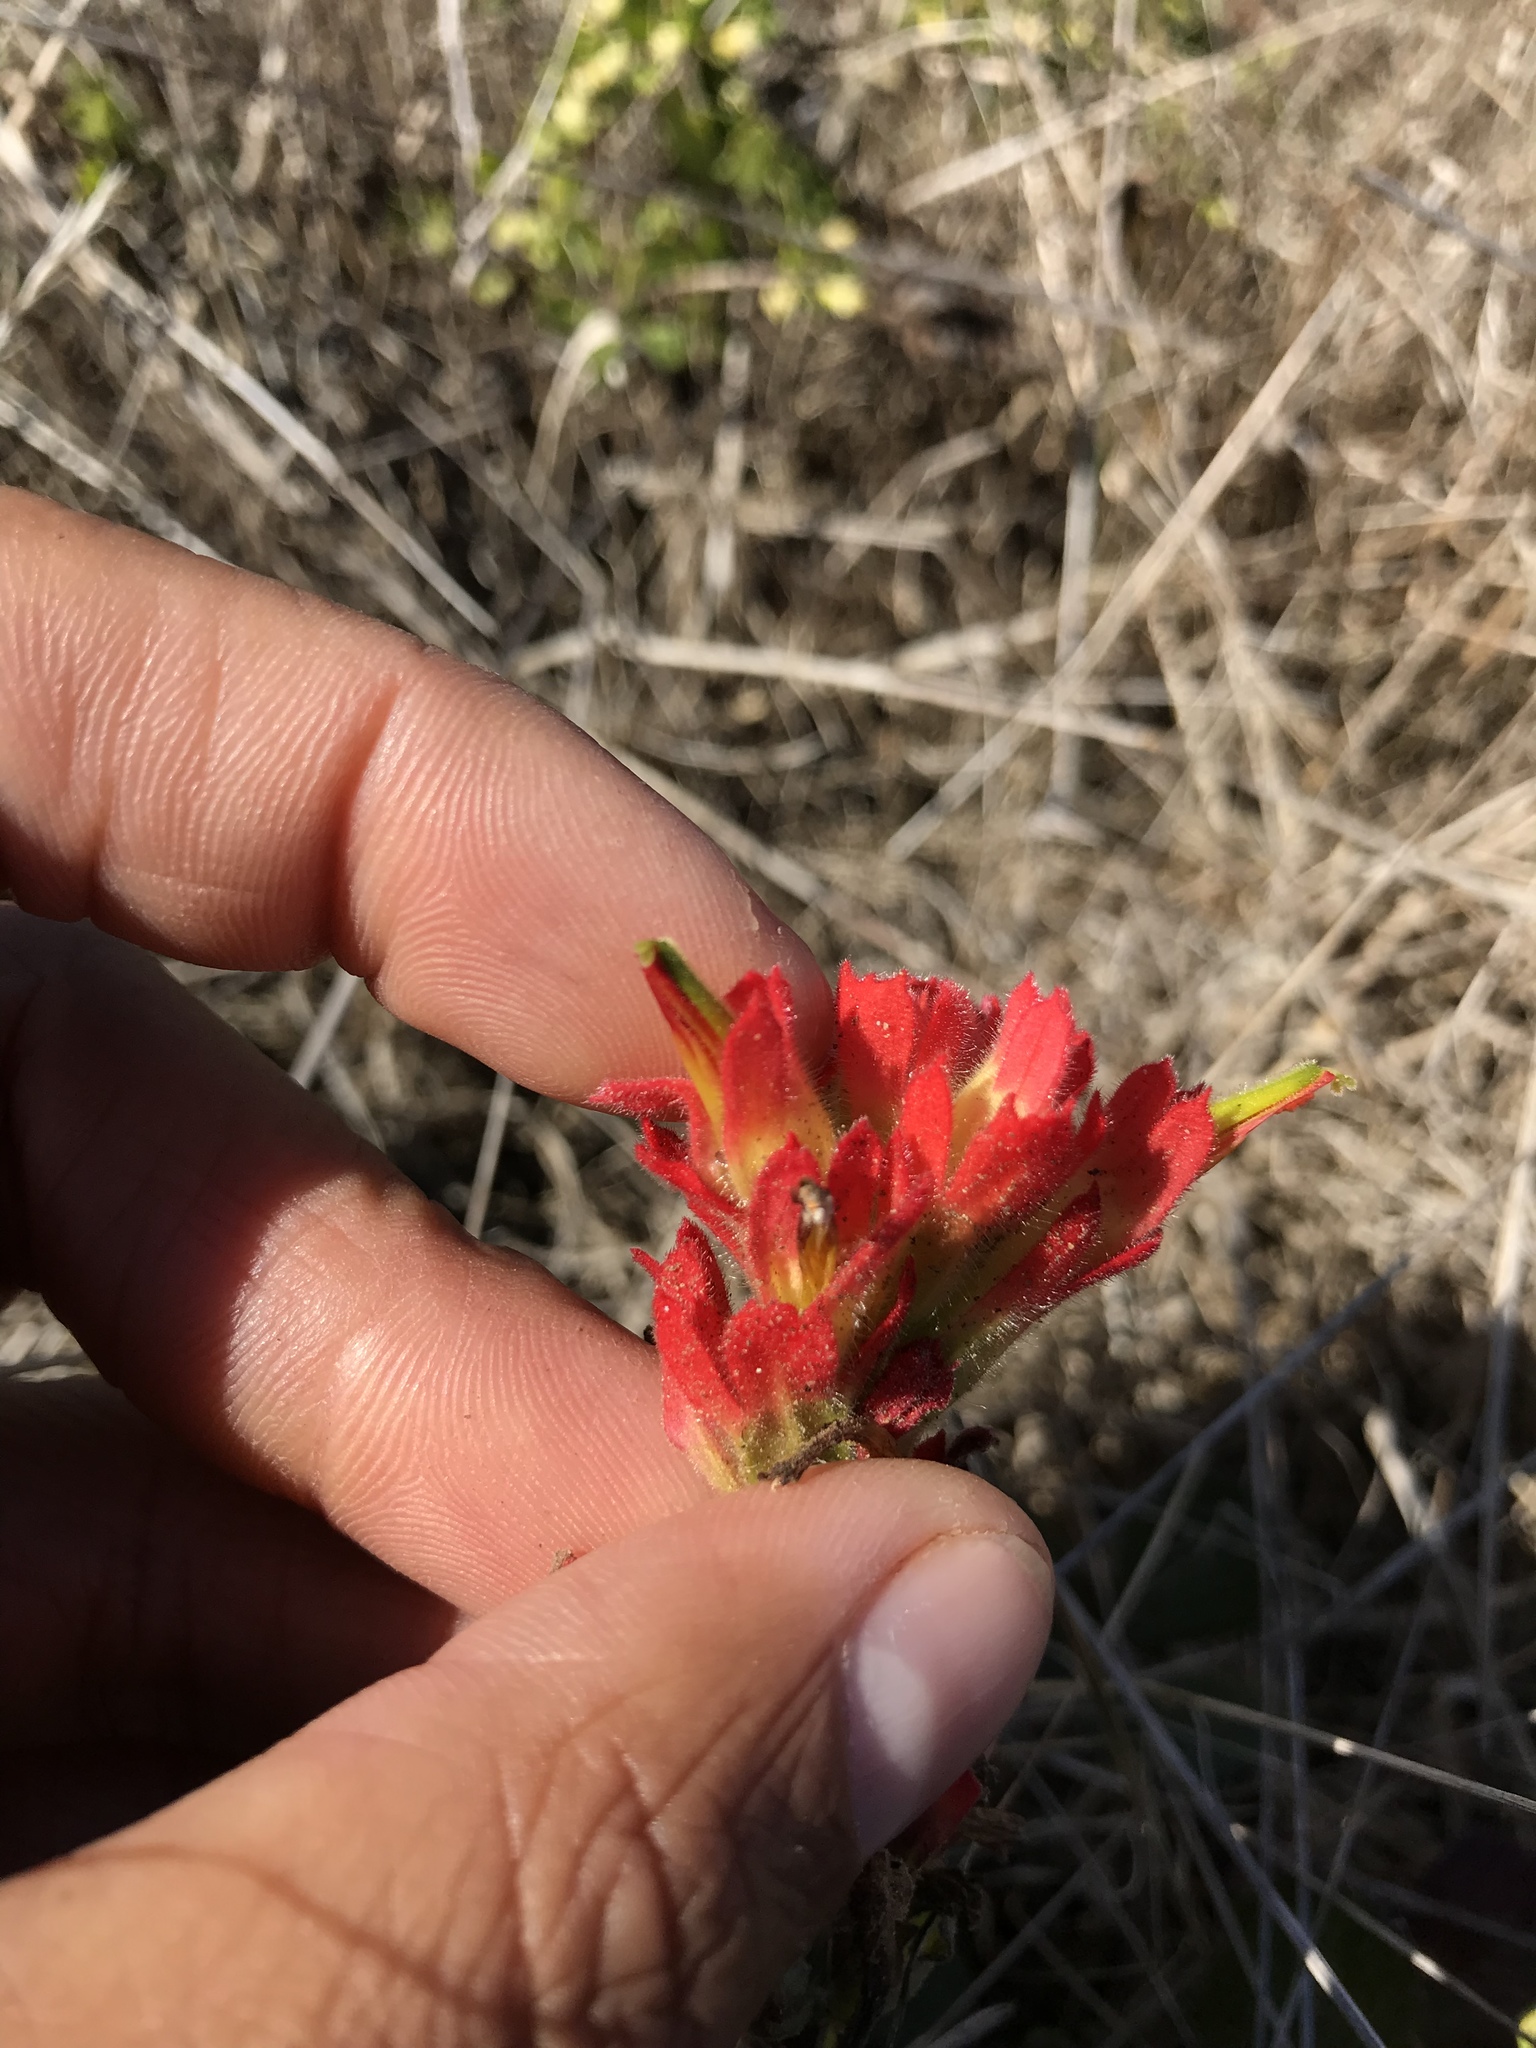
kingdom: Plantae
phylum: Tracheophyta
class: Magnoliopsida
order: Lamiales
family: Orobanchaceae
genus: Castilleja
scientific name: Castilleja affinis
